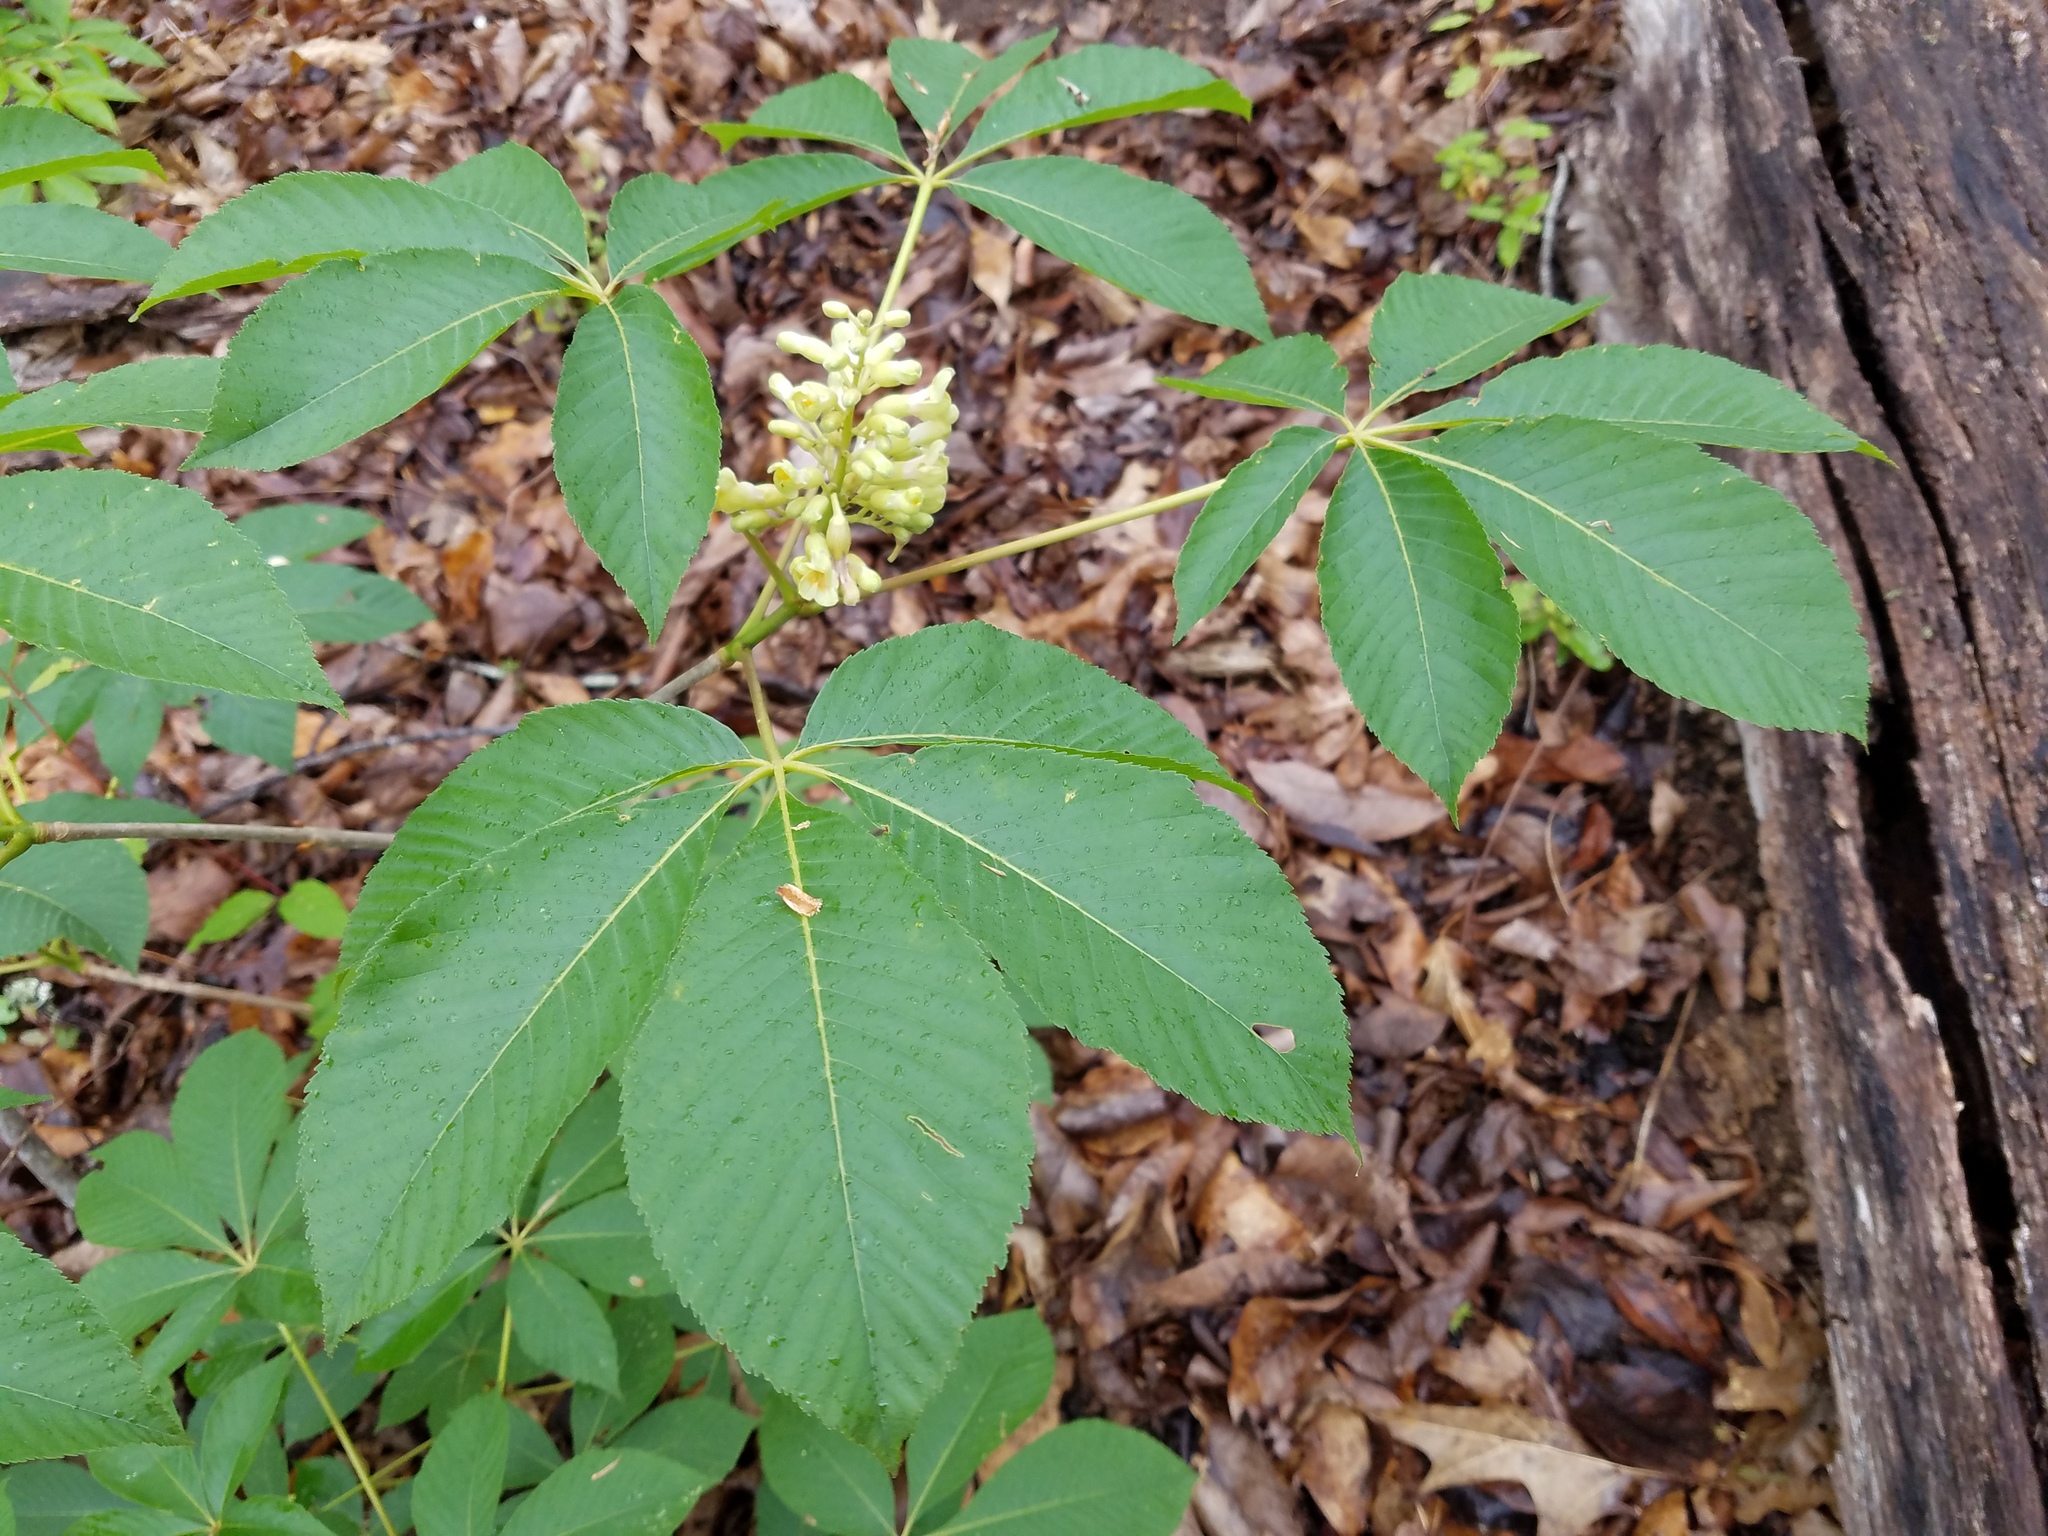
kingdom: Plantae
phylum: Tracheophyta
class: Magnoliopsida
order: Sapindales
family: Sapindaceae
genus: Aesculus
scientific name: Aesculus sylvatica
